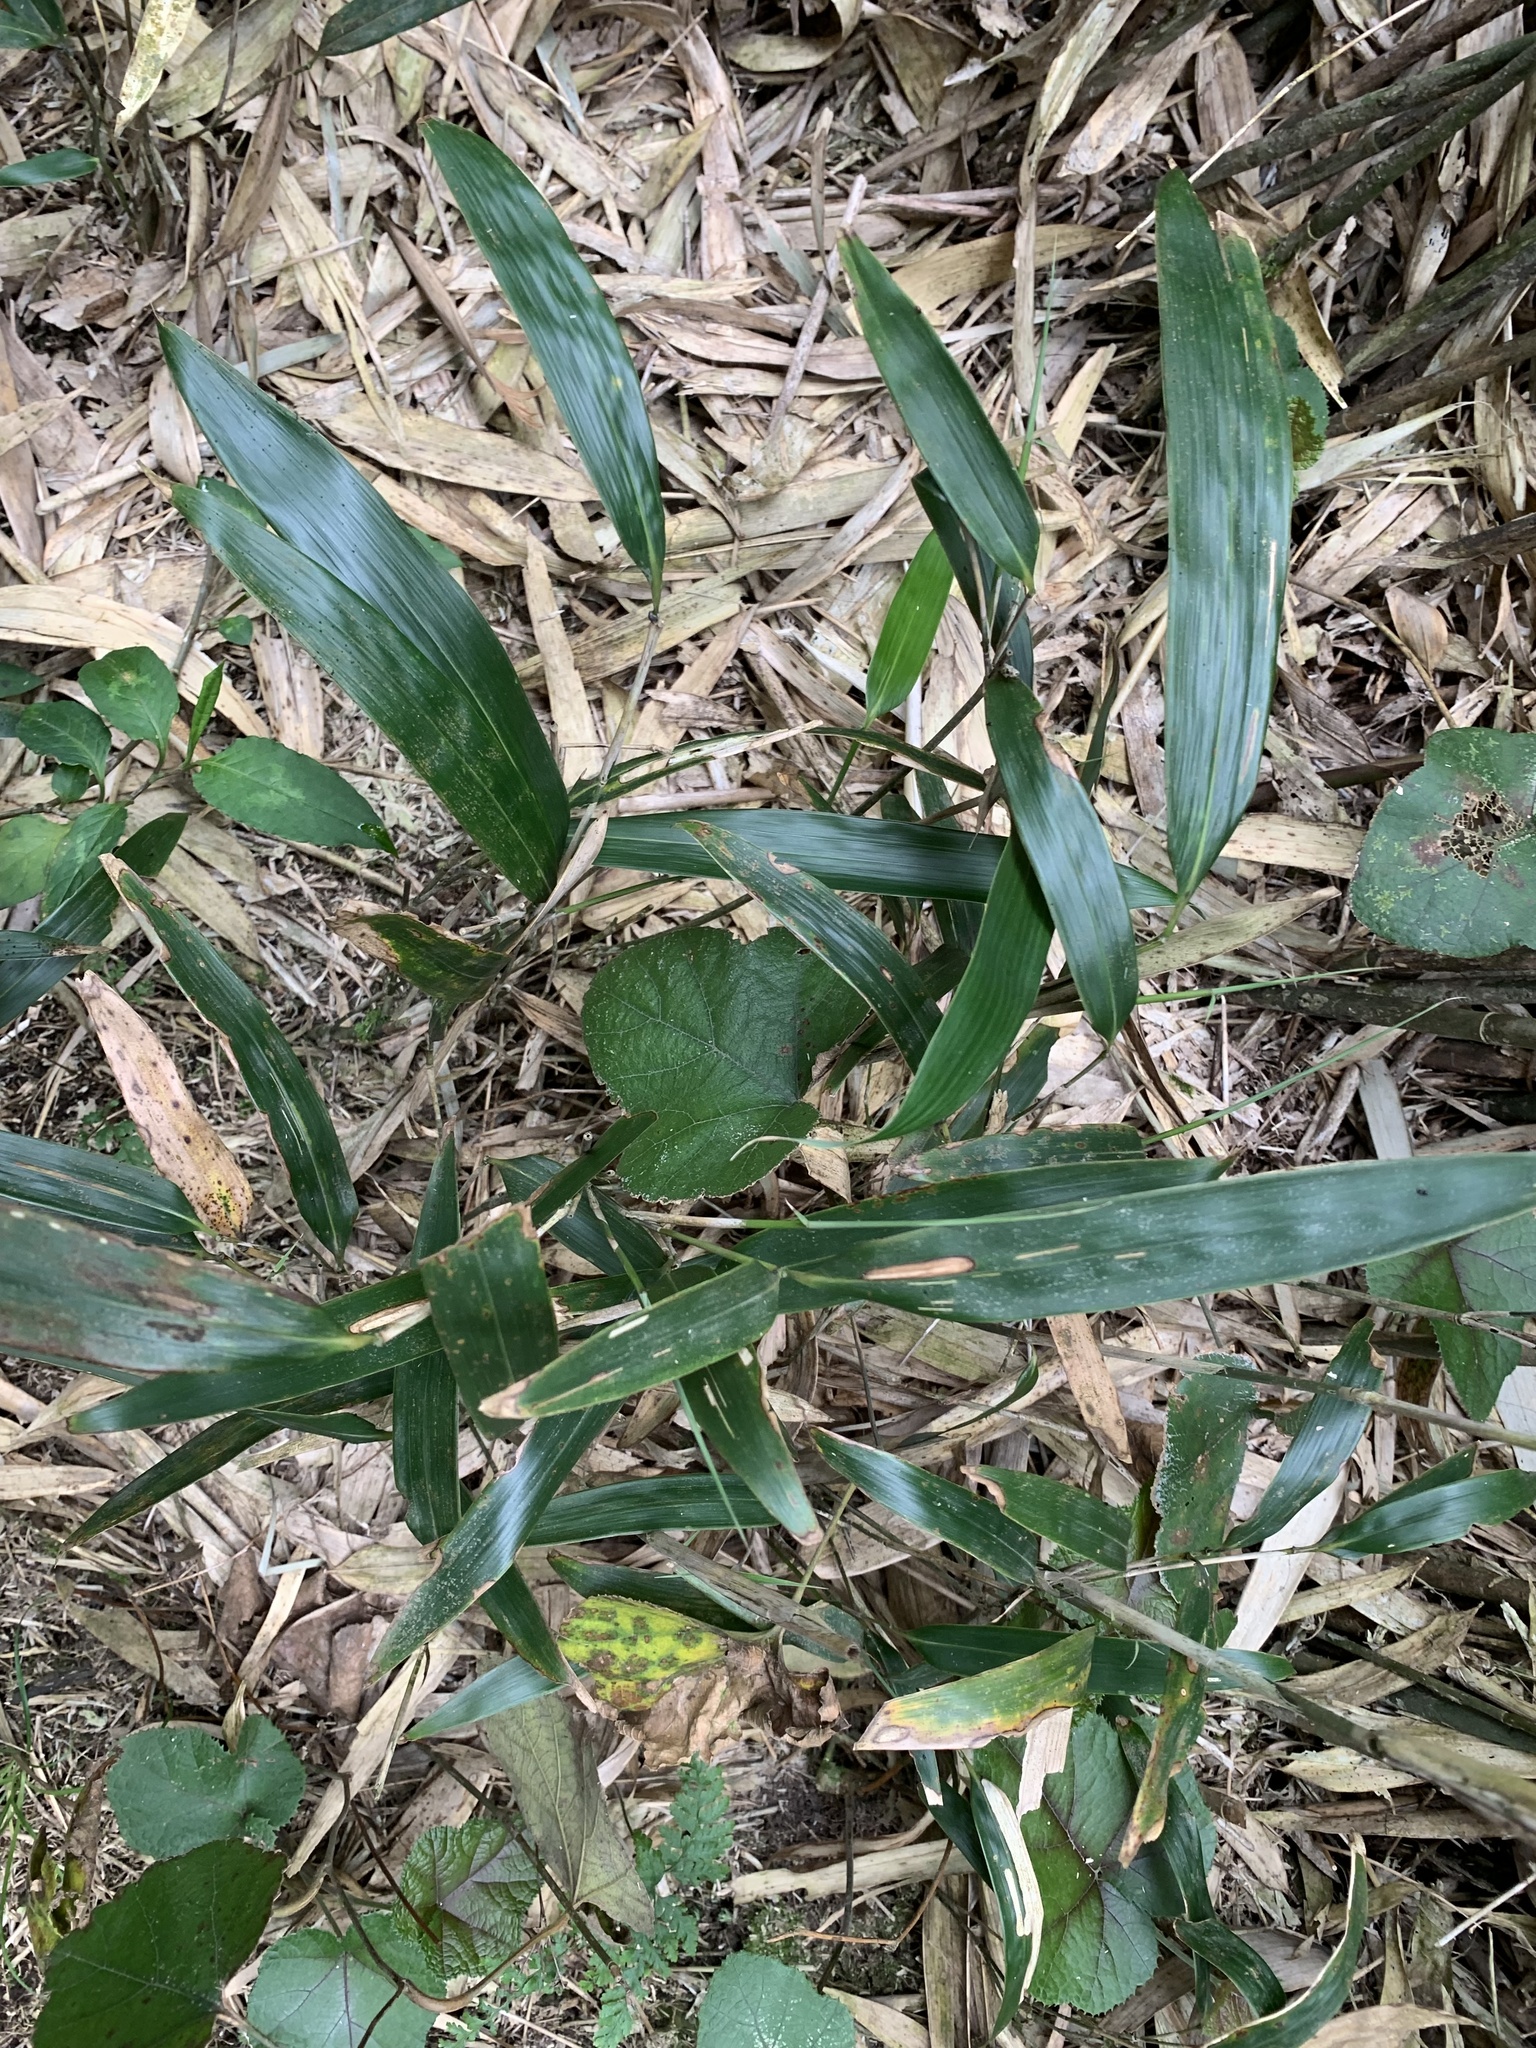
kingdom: Plantae
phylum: Tracheophyta
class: Liliopsida
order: Poales
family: Poaceae
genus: Pseudosasa
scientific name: Pseudosasa japonica
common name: Arrow bamboo
